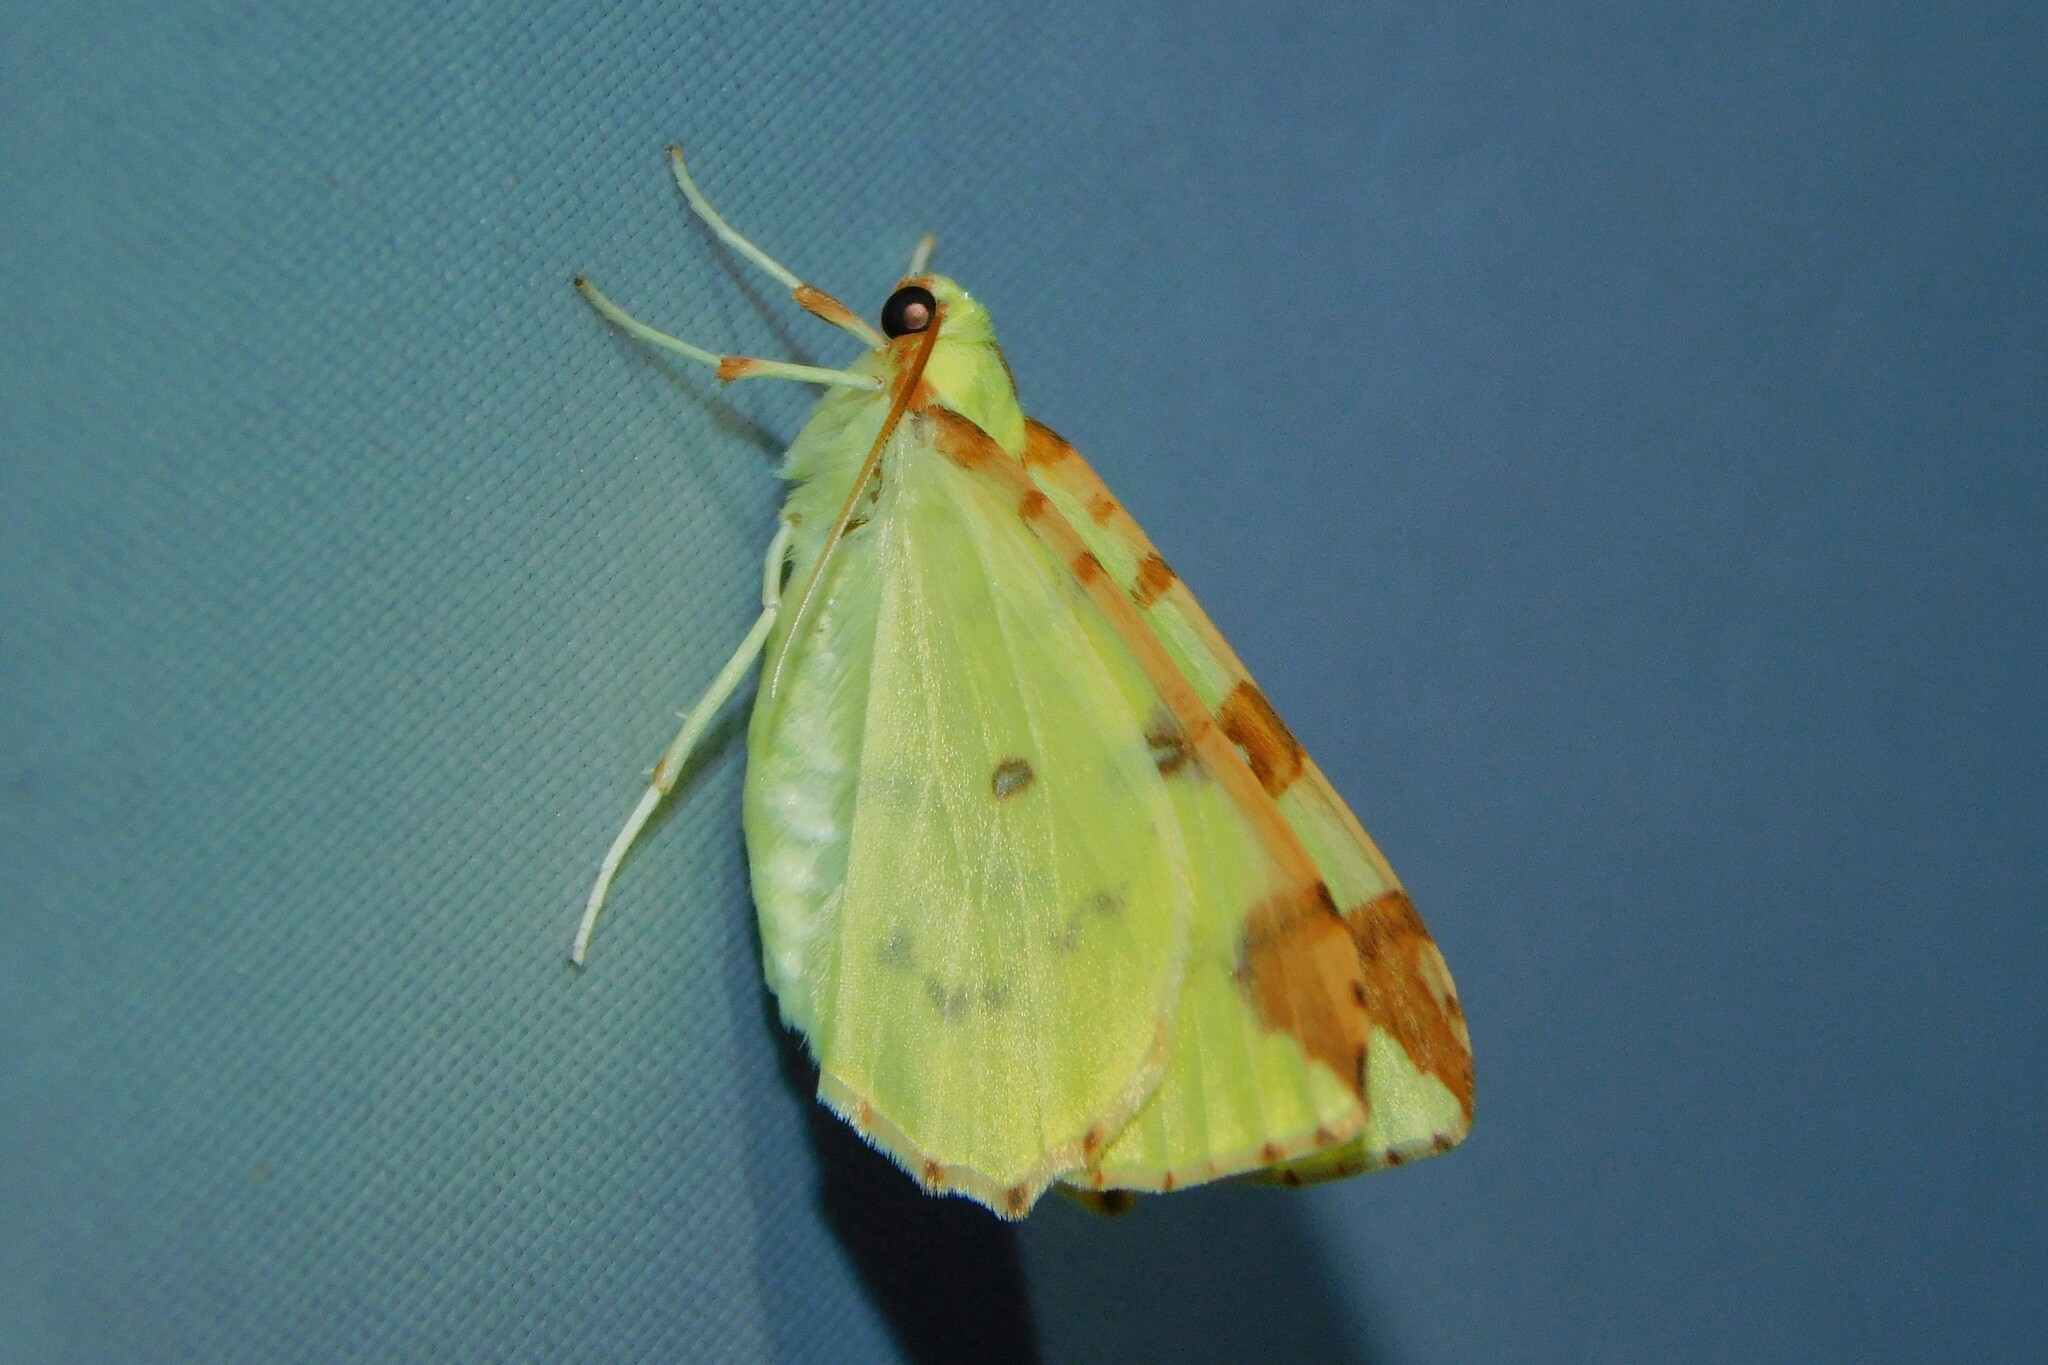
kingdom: Animalia
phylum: Arthropoda
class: Insecta
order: Lepidoptera
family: Geometridae
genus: Opisthograptis
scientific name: Opisthograptis luteolata
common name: Brimstone moth
